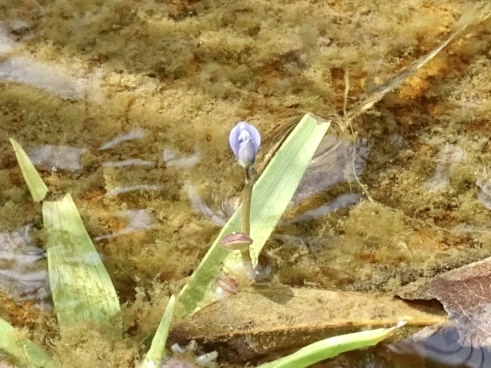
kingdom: Plantae
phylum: Tracheophyta
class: Magnoliopsida
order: Lamiales
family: Lentibulariaceae
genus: Utricularia
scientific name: Utricularia uliginosa
